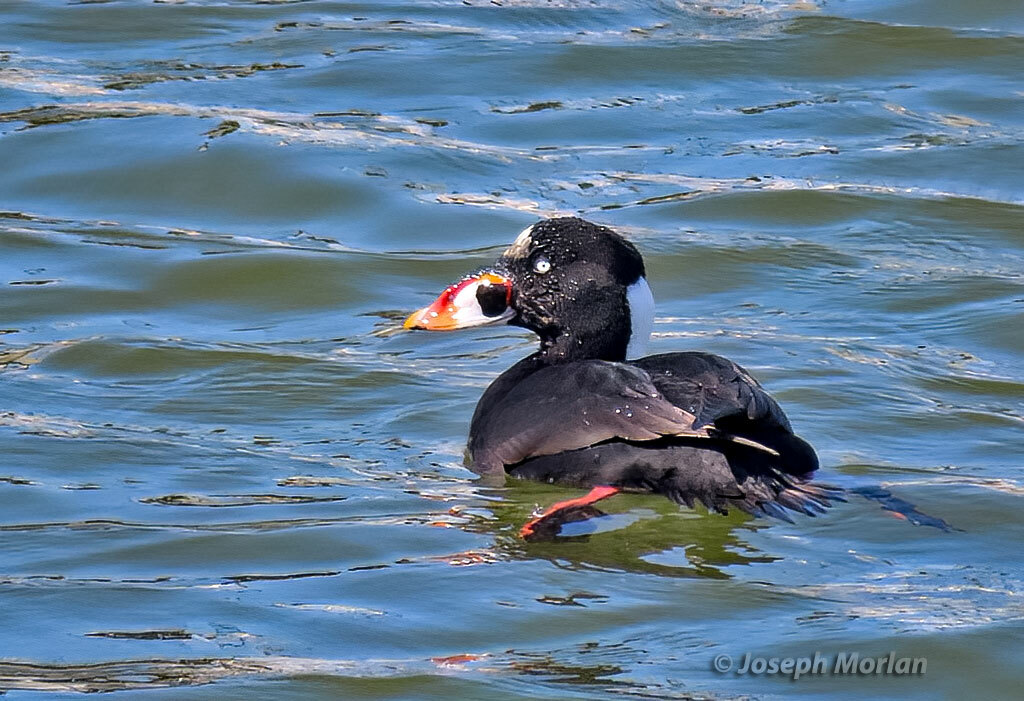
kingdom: Animalia
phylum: Chordata
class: Aves
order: Anseriformes
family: Anatidae
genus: Melanitta
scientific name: Melanitta perspicillata
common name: Surf scoter
